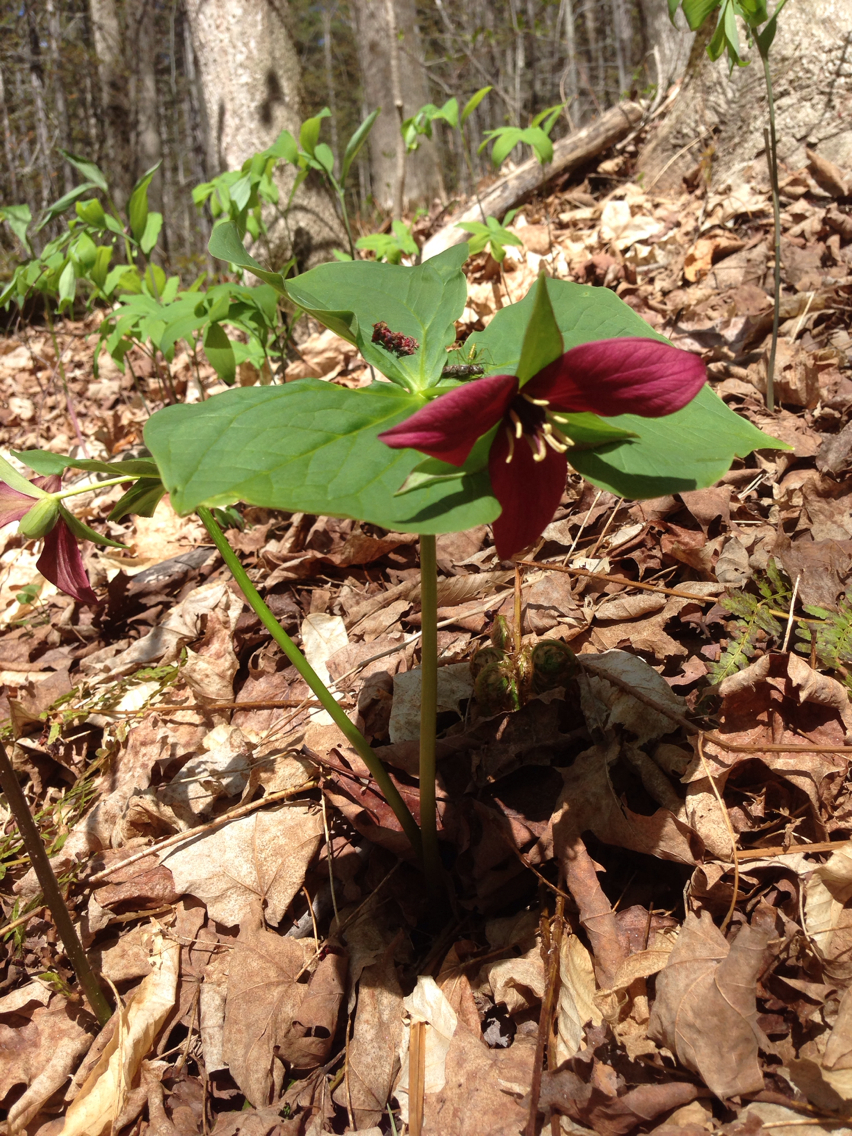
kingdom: Plantae
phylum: Tracheophyta
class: Liliopsida
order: Liliales
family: Melanthiaceae
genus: Trillium
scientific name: Trillium erectum
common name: Purple trillium
